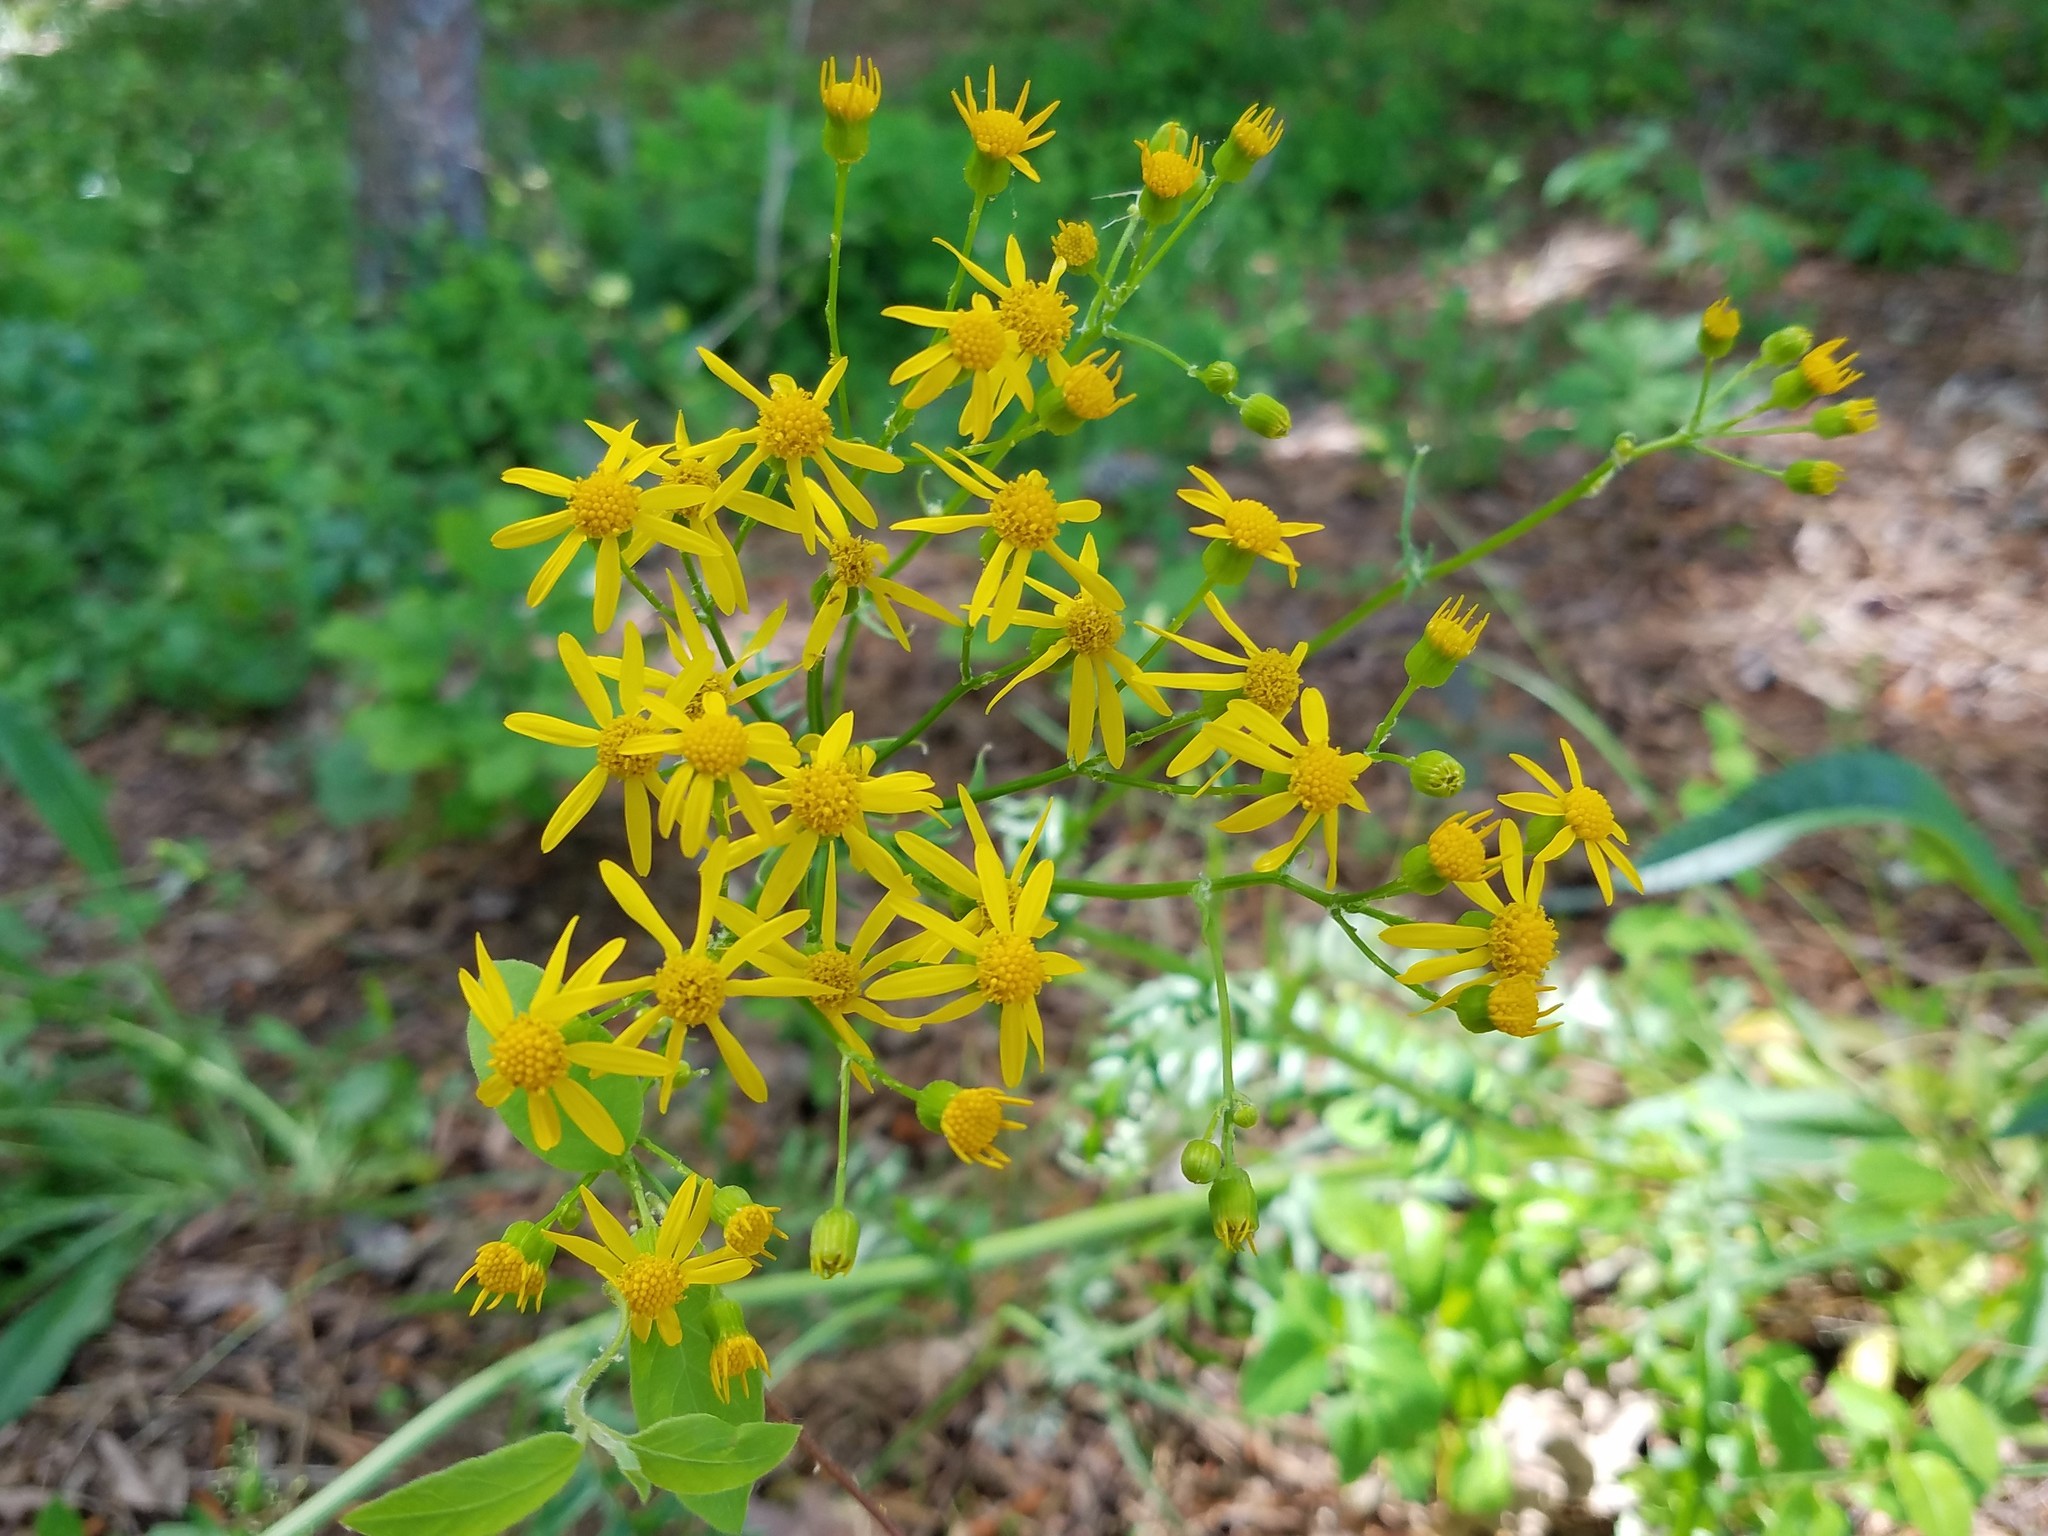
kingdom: Plantae
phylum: Tracheophyta
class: Magnoliopsida
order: Asterales
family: Asteraceae
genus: Packera
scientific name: Packera anonyma
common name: Small ragwort
